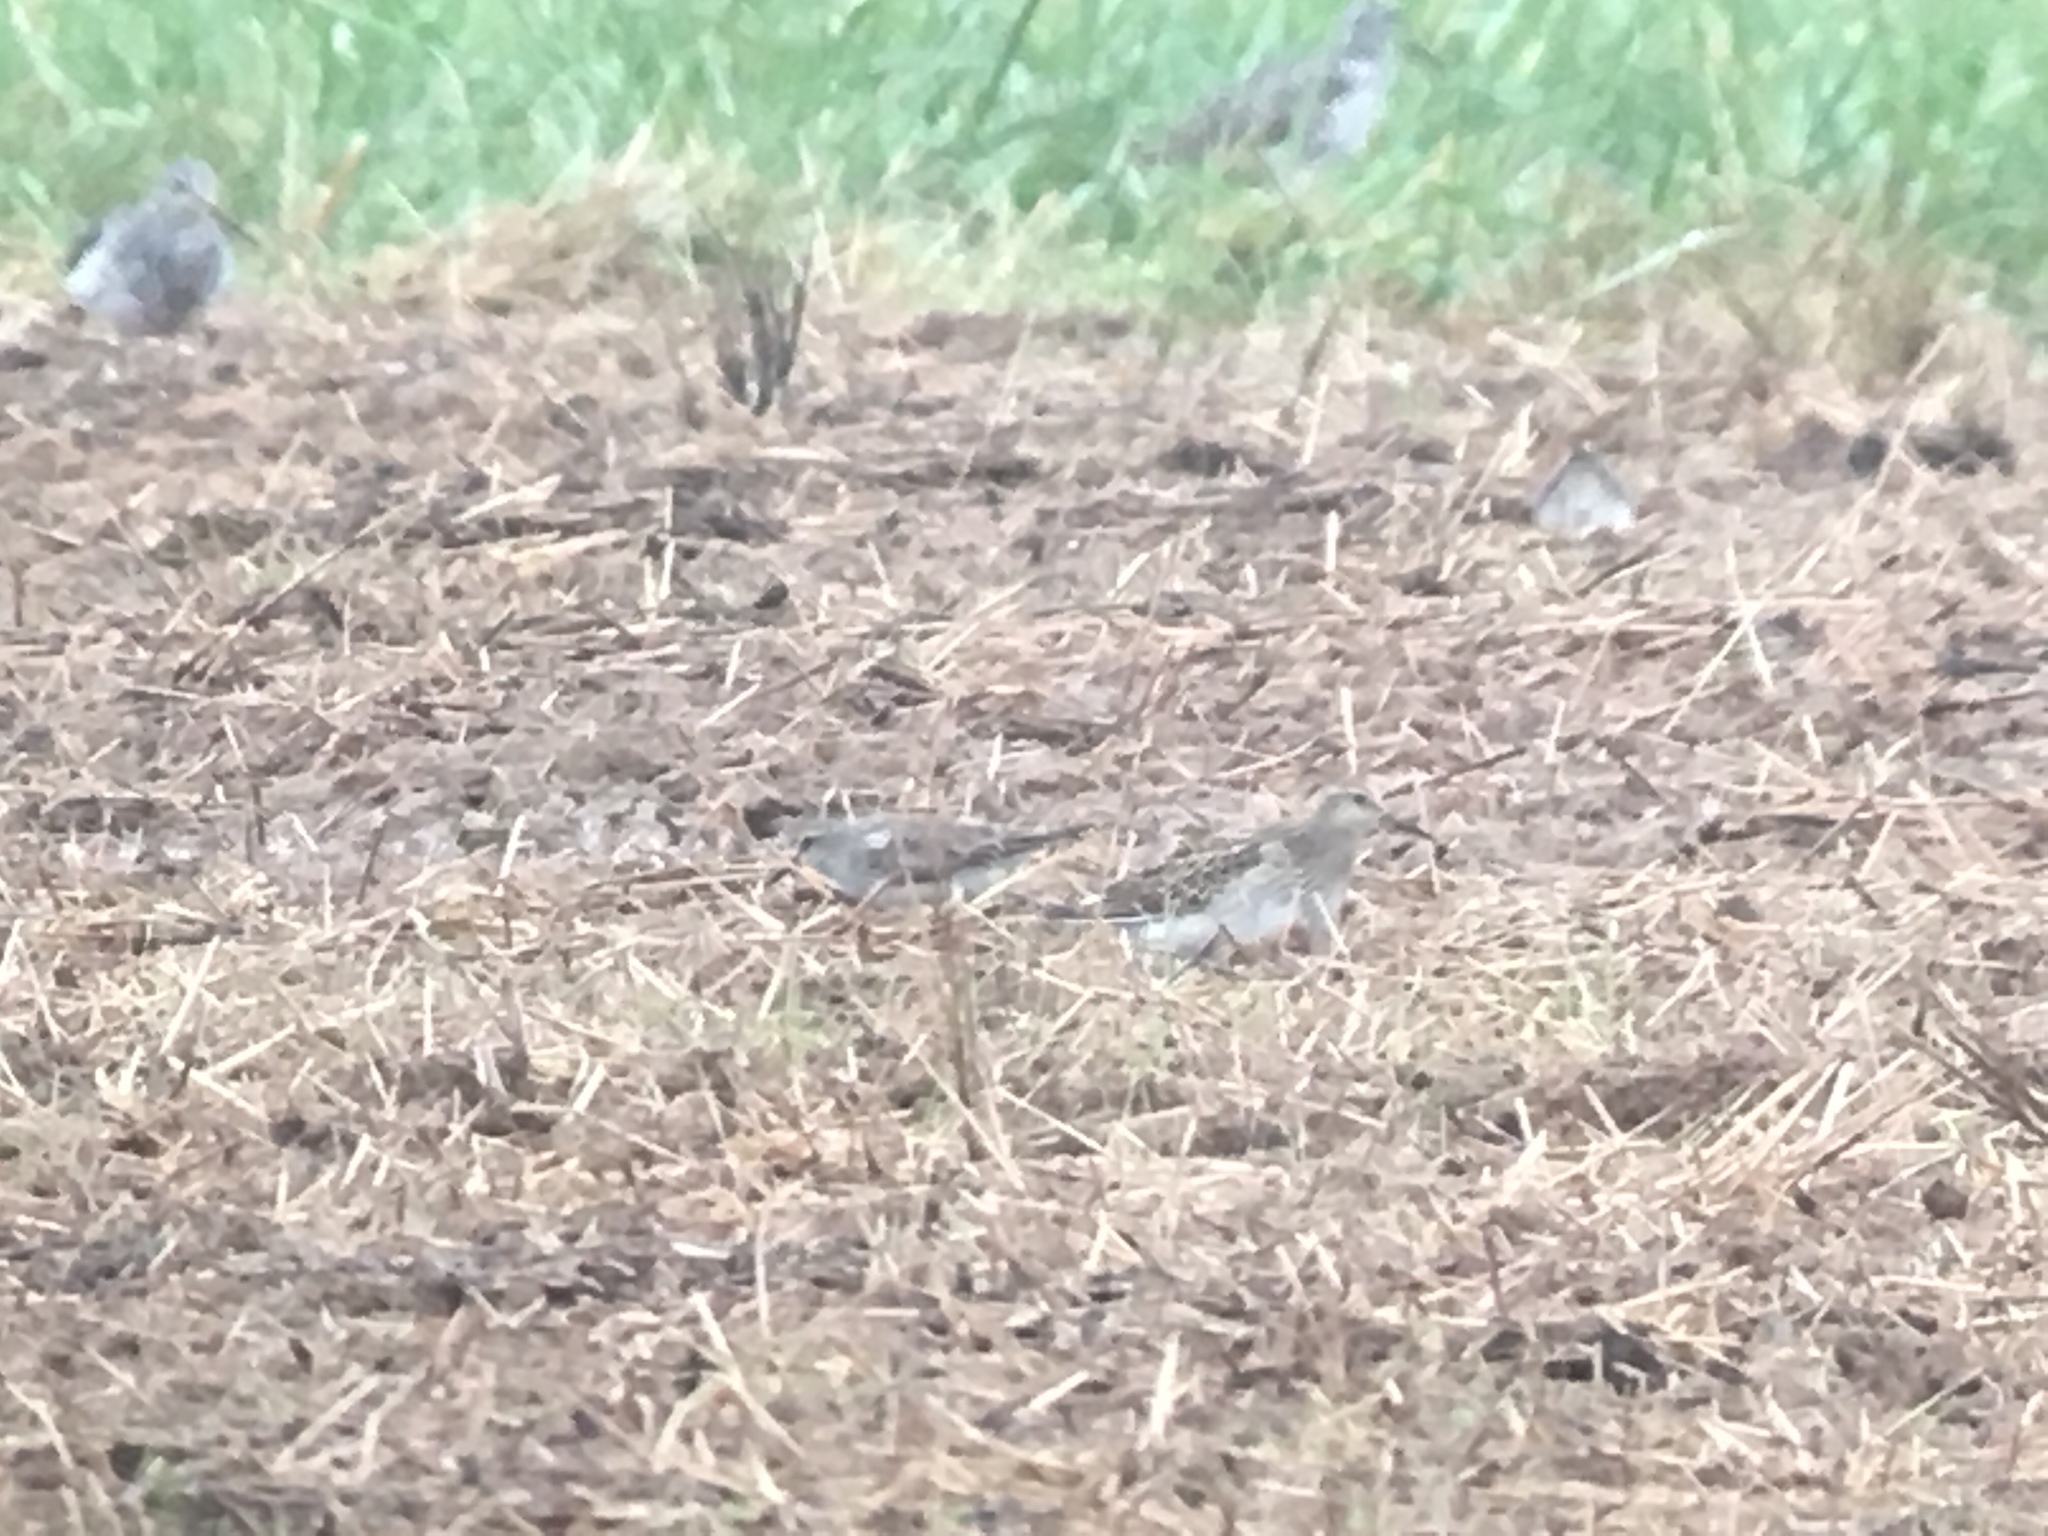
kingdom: Animalia
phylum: Chordata
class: Aves
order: Charadriiformes
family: Scolopacidae
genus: Calidris
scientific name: Calidris melanotos
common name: Pectoral sandpiper
